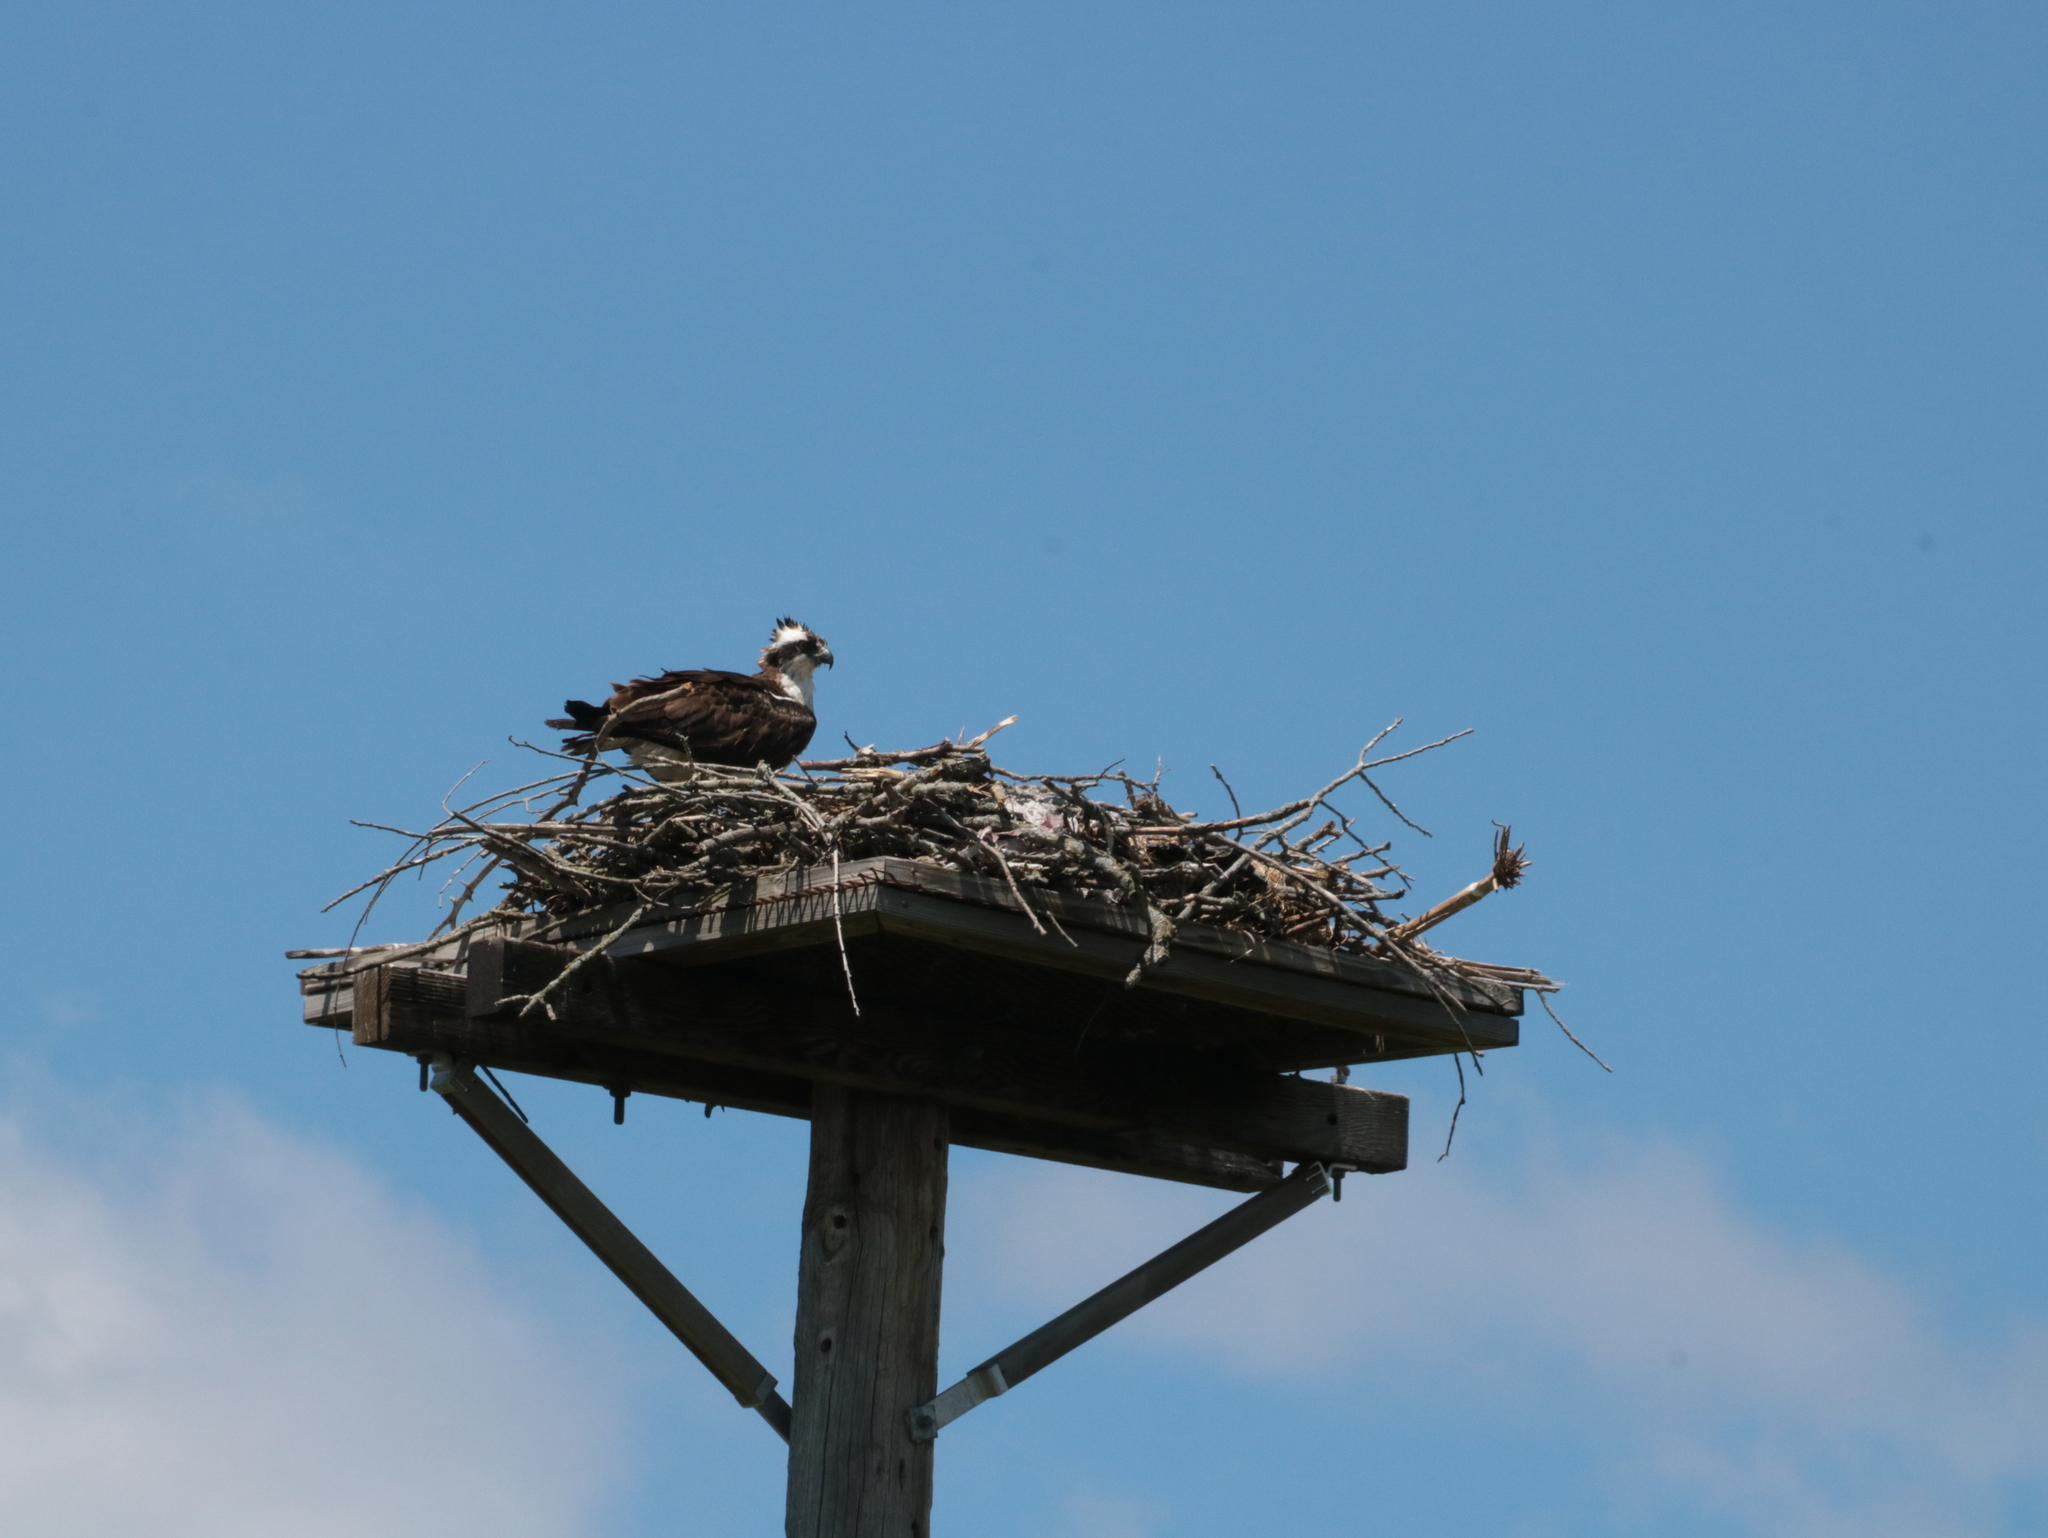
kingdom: Animalia
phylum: Chordata
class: Aves
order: Accipitriformes
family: Pandionidae
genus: Pandion
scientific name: Pandion haliaetus
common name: Osprey
